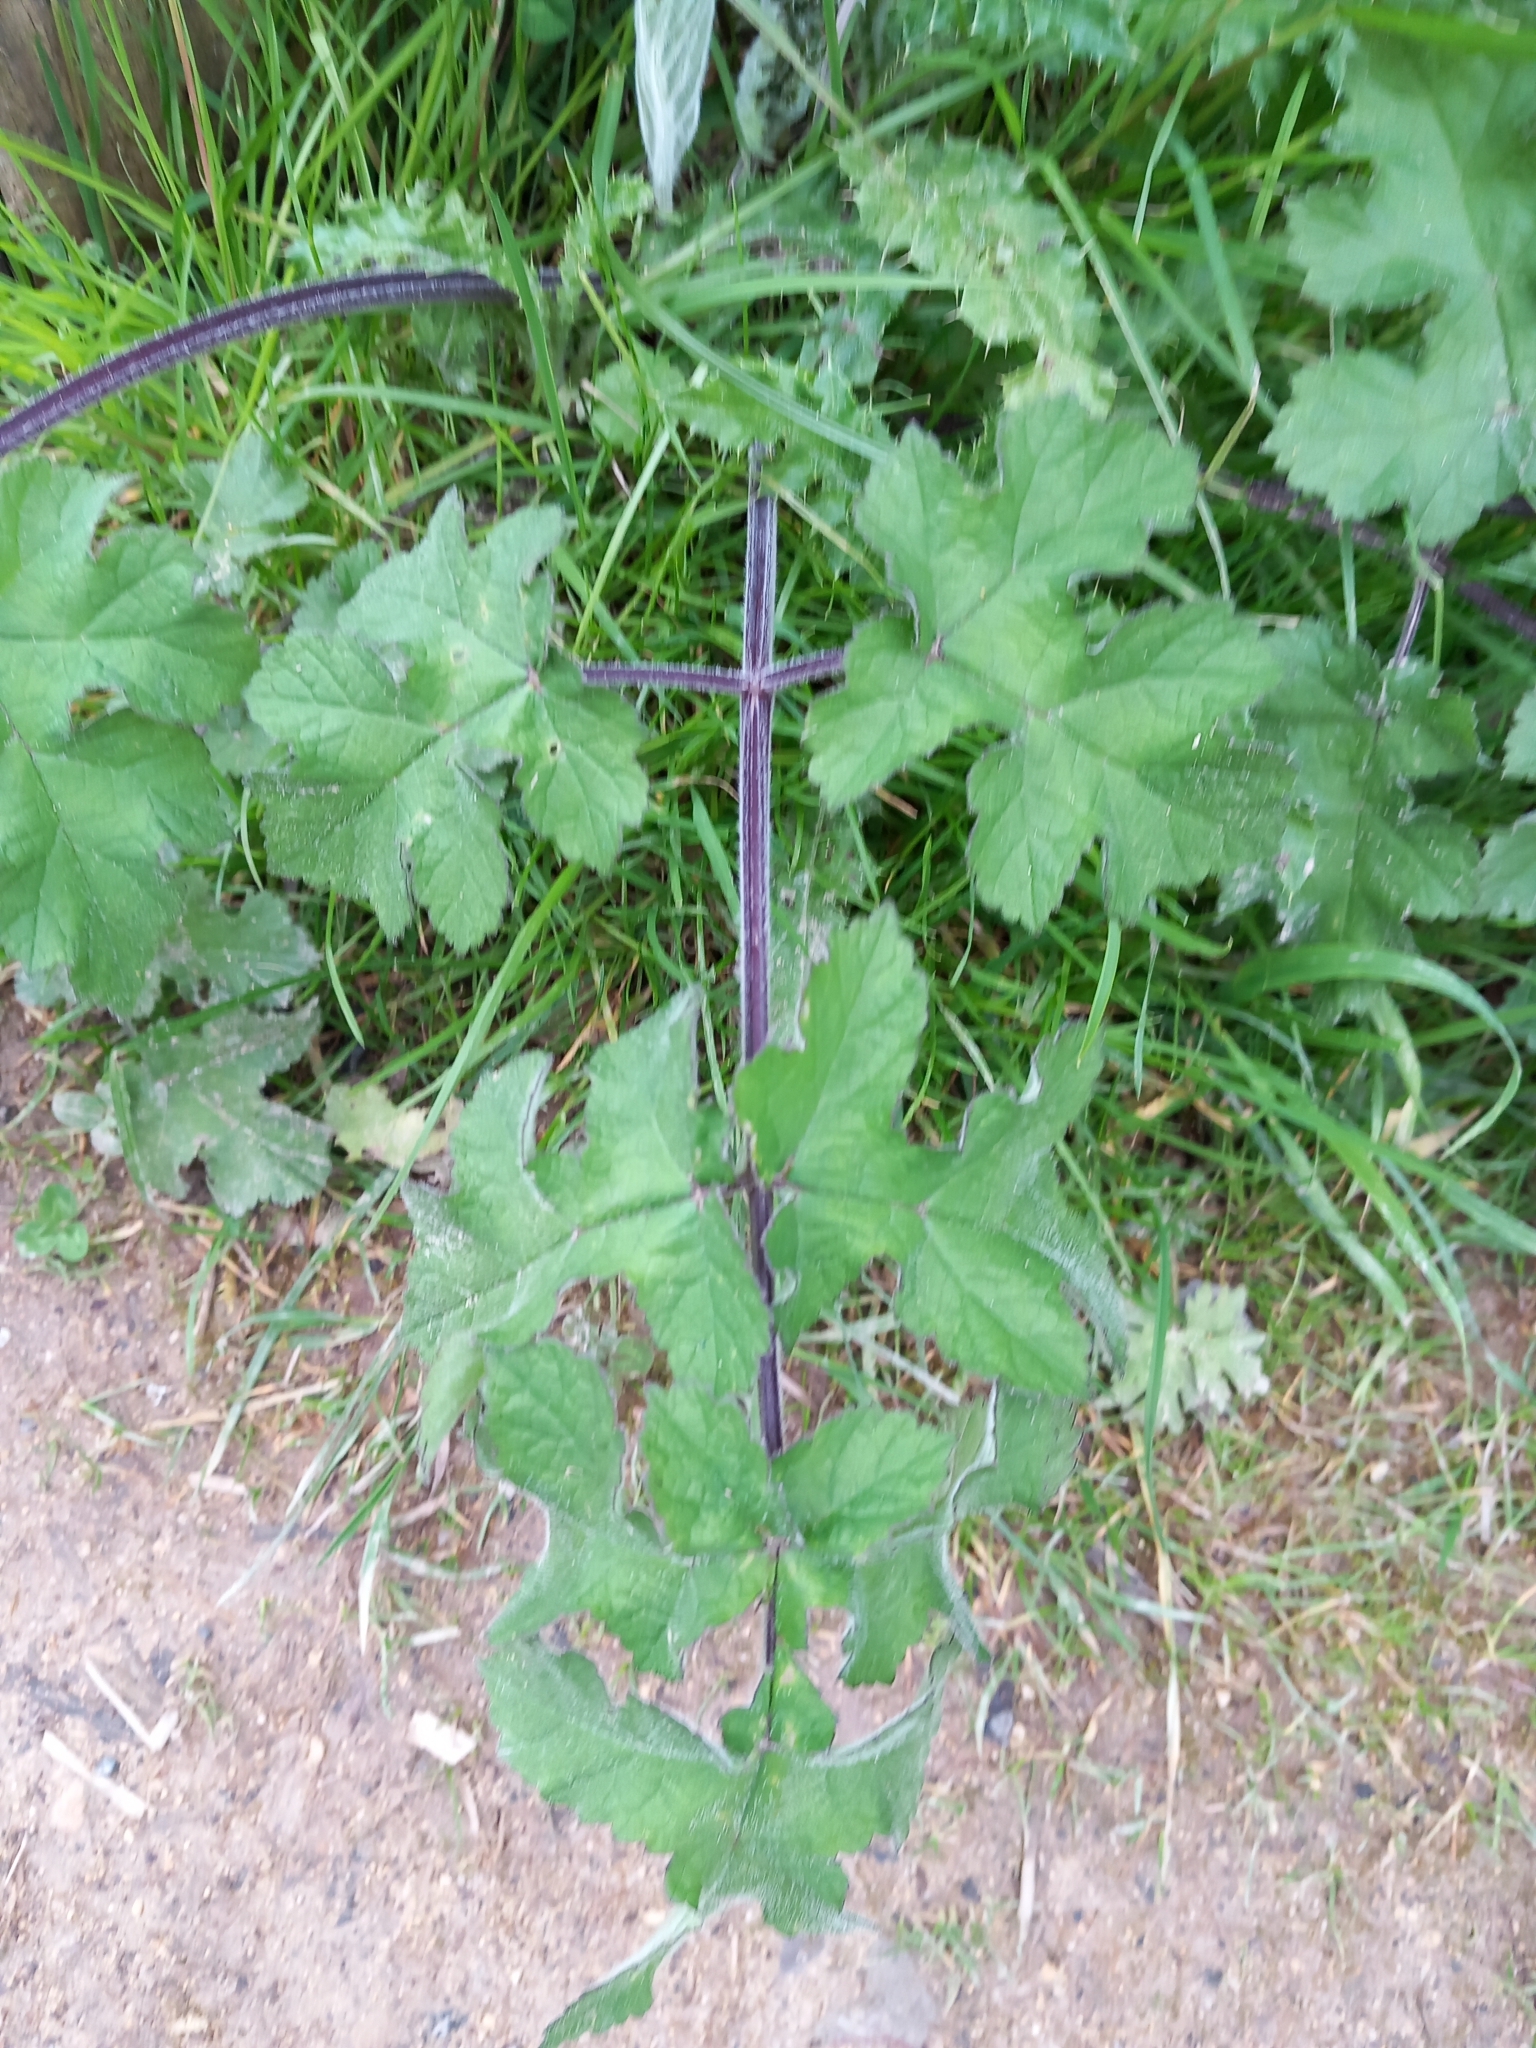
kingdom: Plantae
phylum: Tracheophyta
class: Magnoliopsida
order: Apiales
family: Apiaceae
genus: Heracleum
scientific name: Heracleum sphondylium
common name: Hogweed
